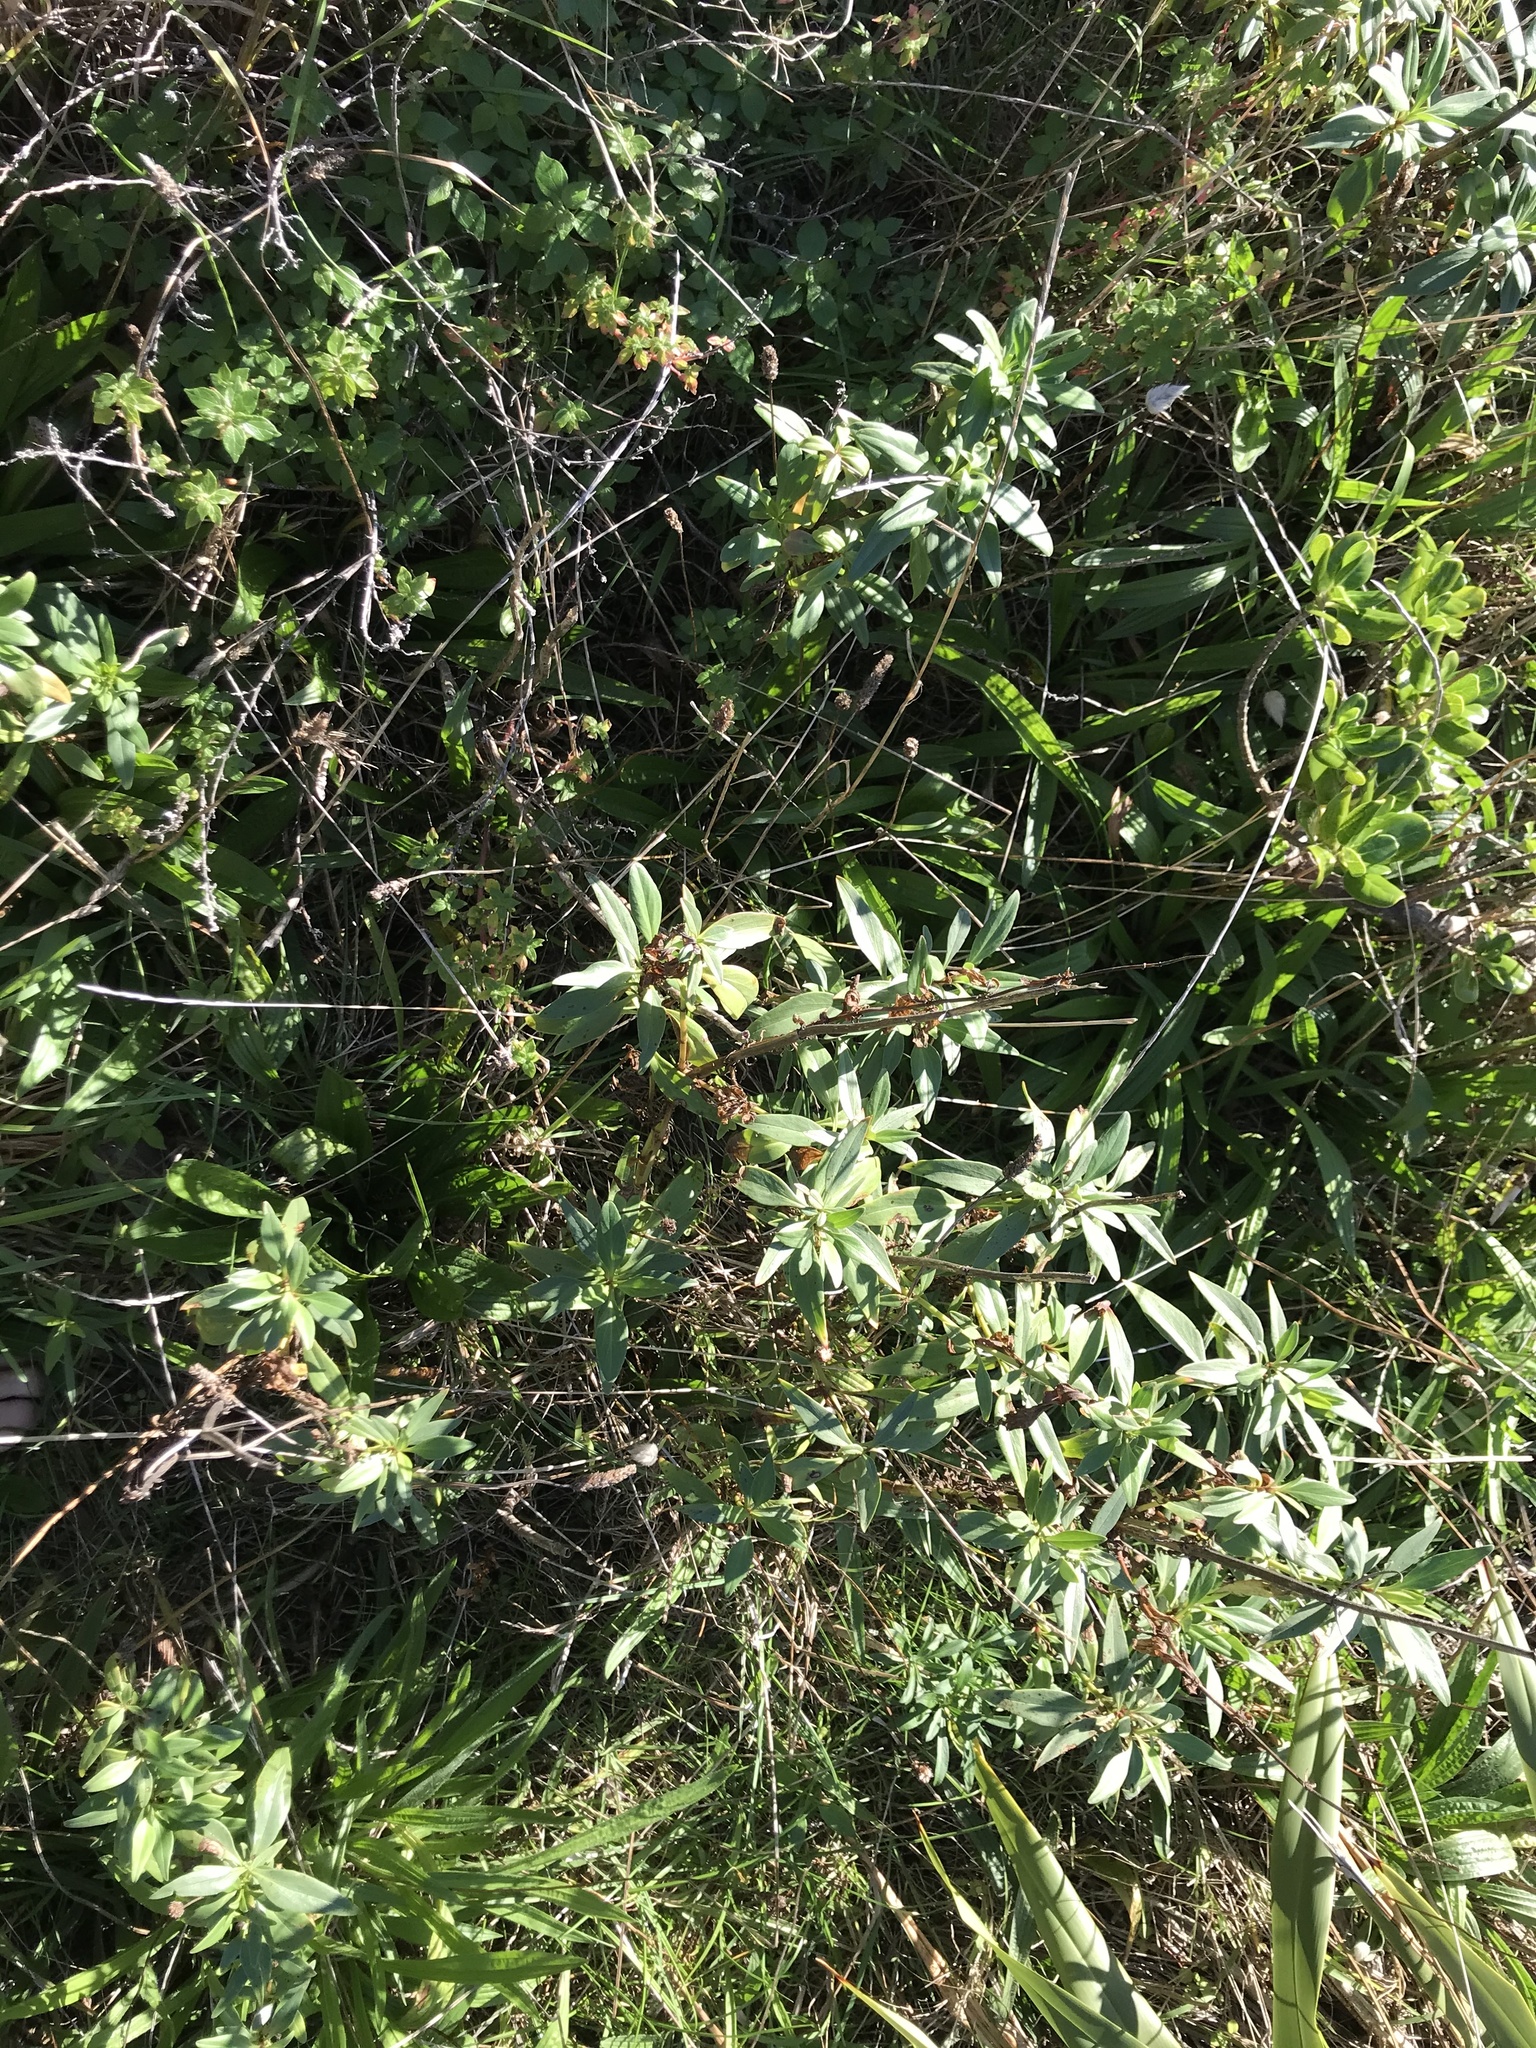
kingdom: Plantae
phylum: Tracheophyta
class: Magnoliopsida
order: Dipsacales
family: Caprifoliaceae
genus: Centranthus
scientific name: Centranthus ruber
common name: Red valerian
